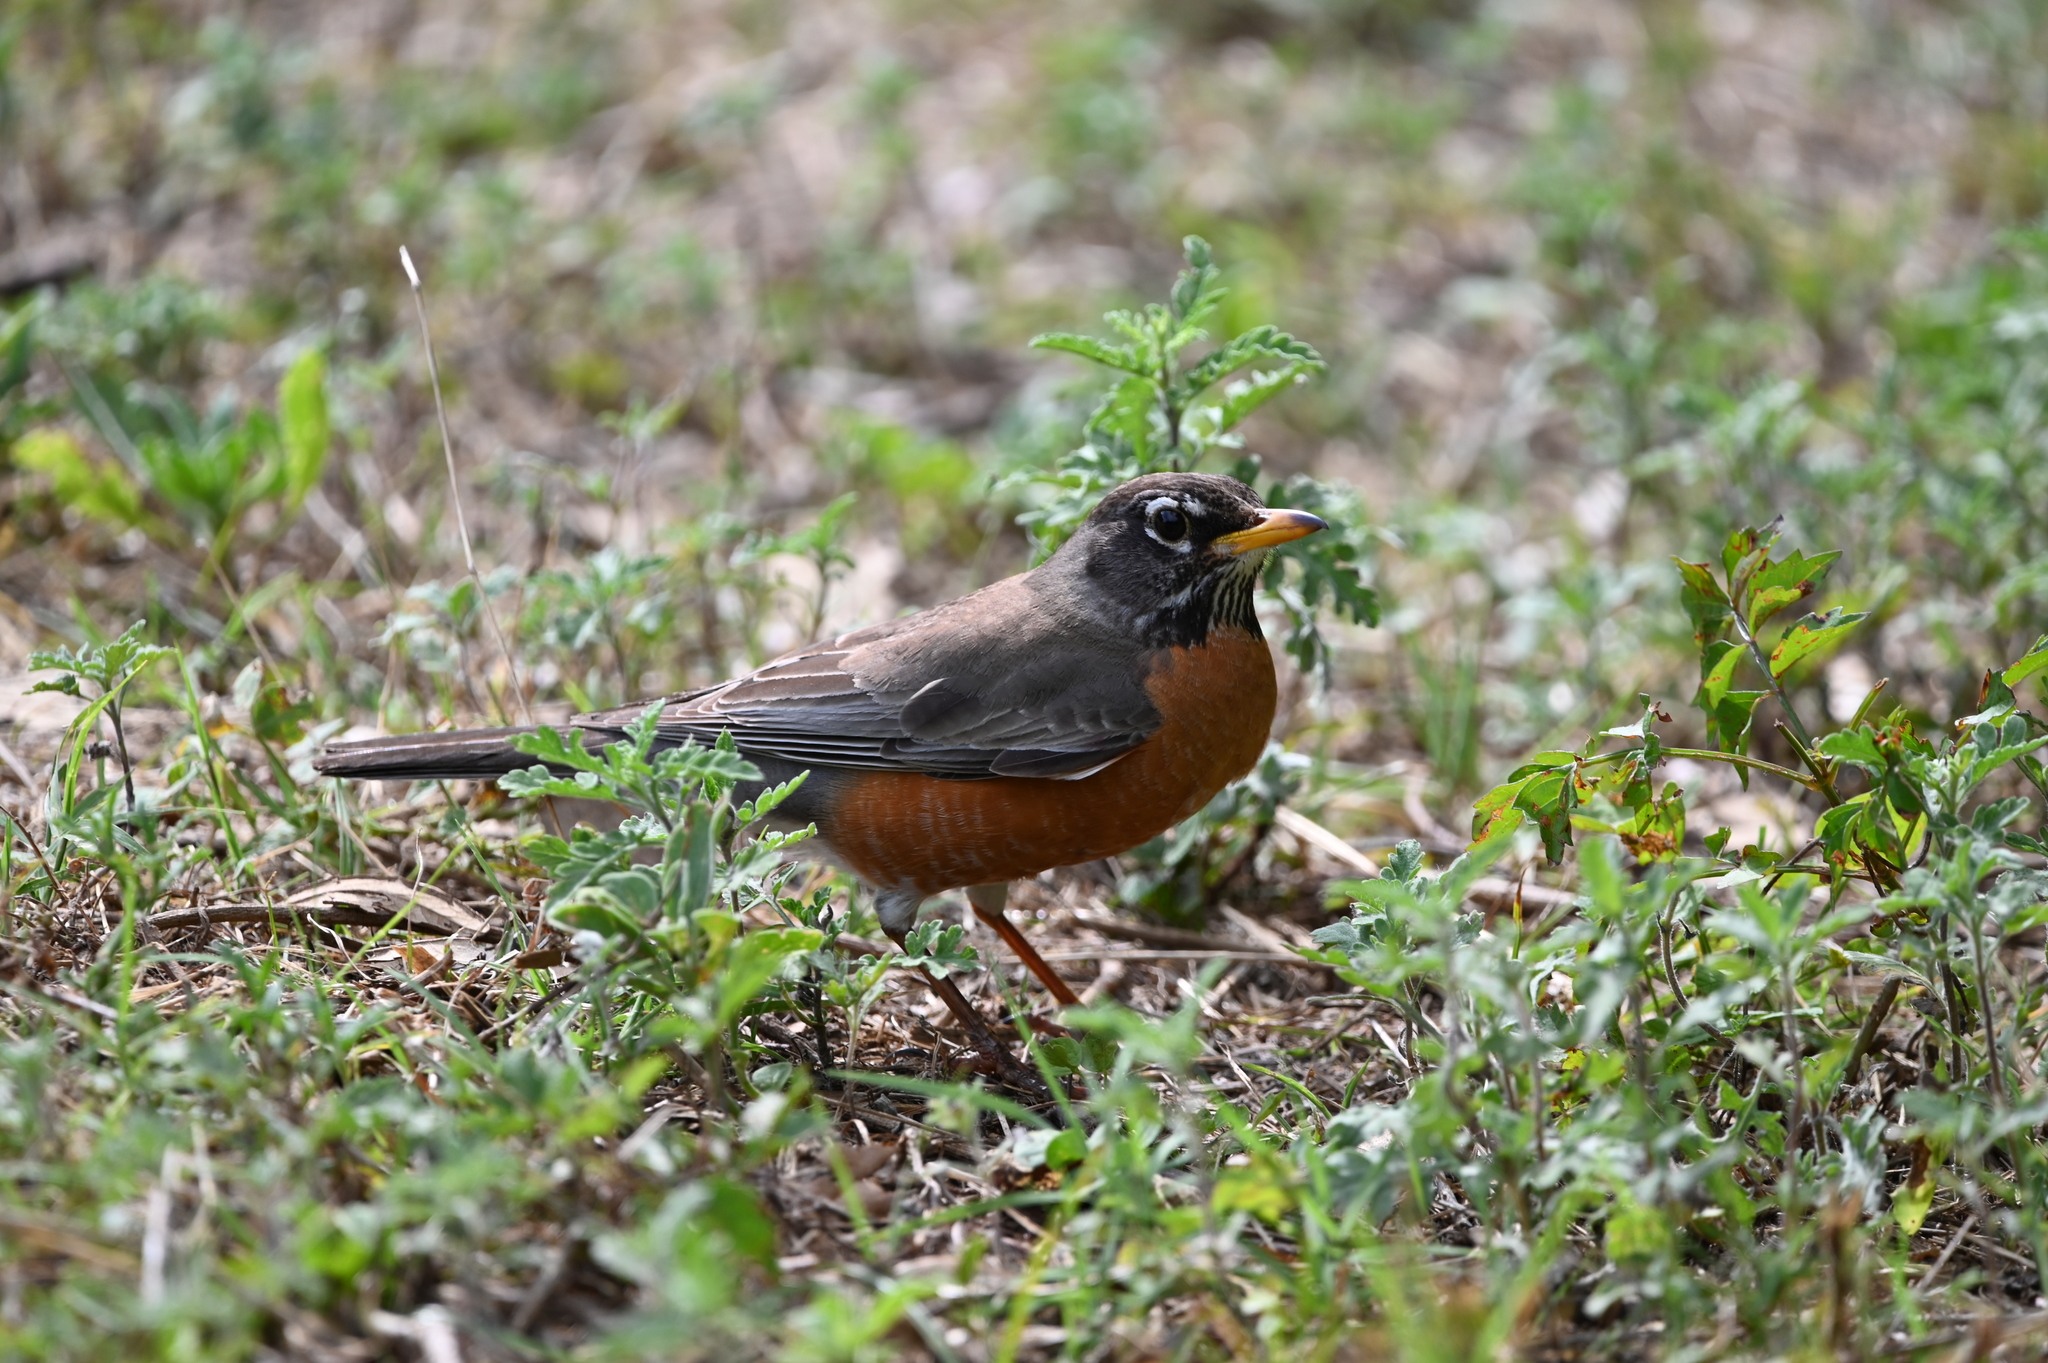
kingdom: Animalia
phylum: Chordata
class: Aves
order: Passeriformes
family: Turdidae
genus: Turdus
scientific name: Turdus migratorius
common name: American robin
